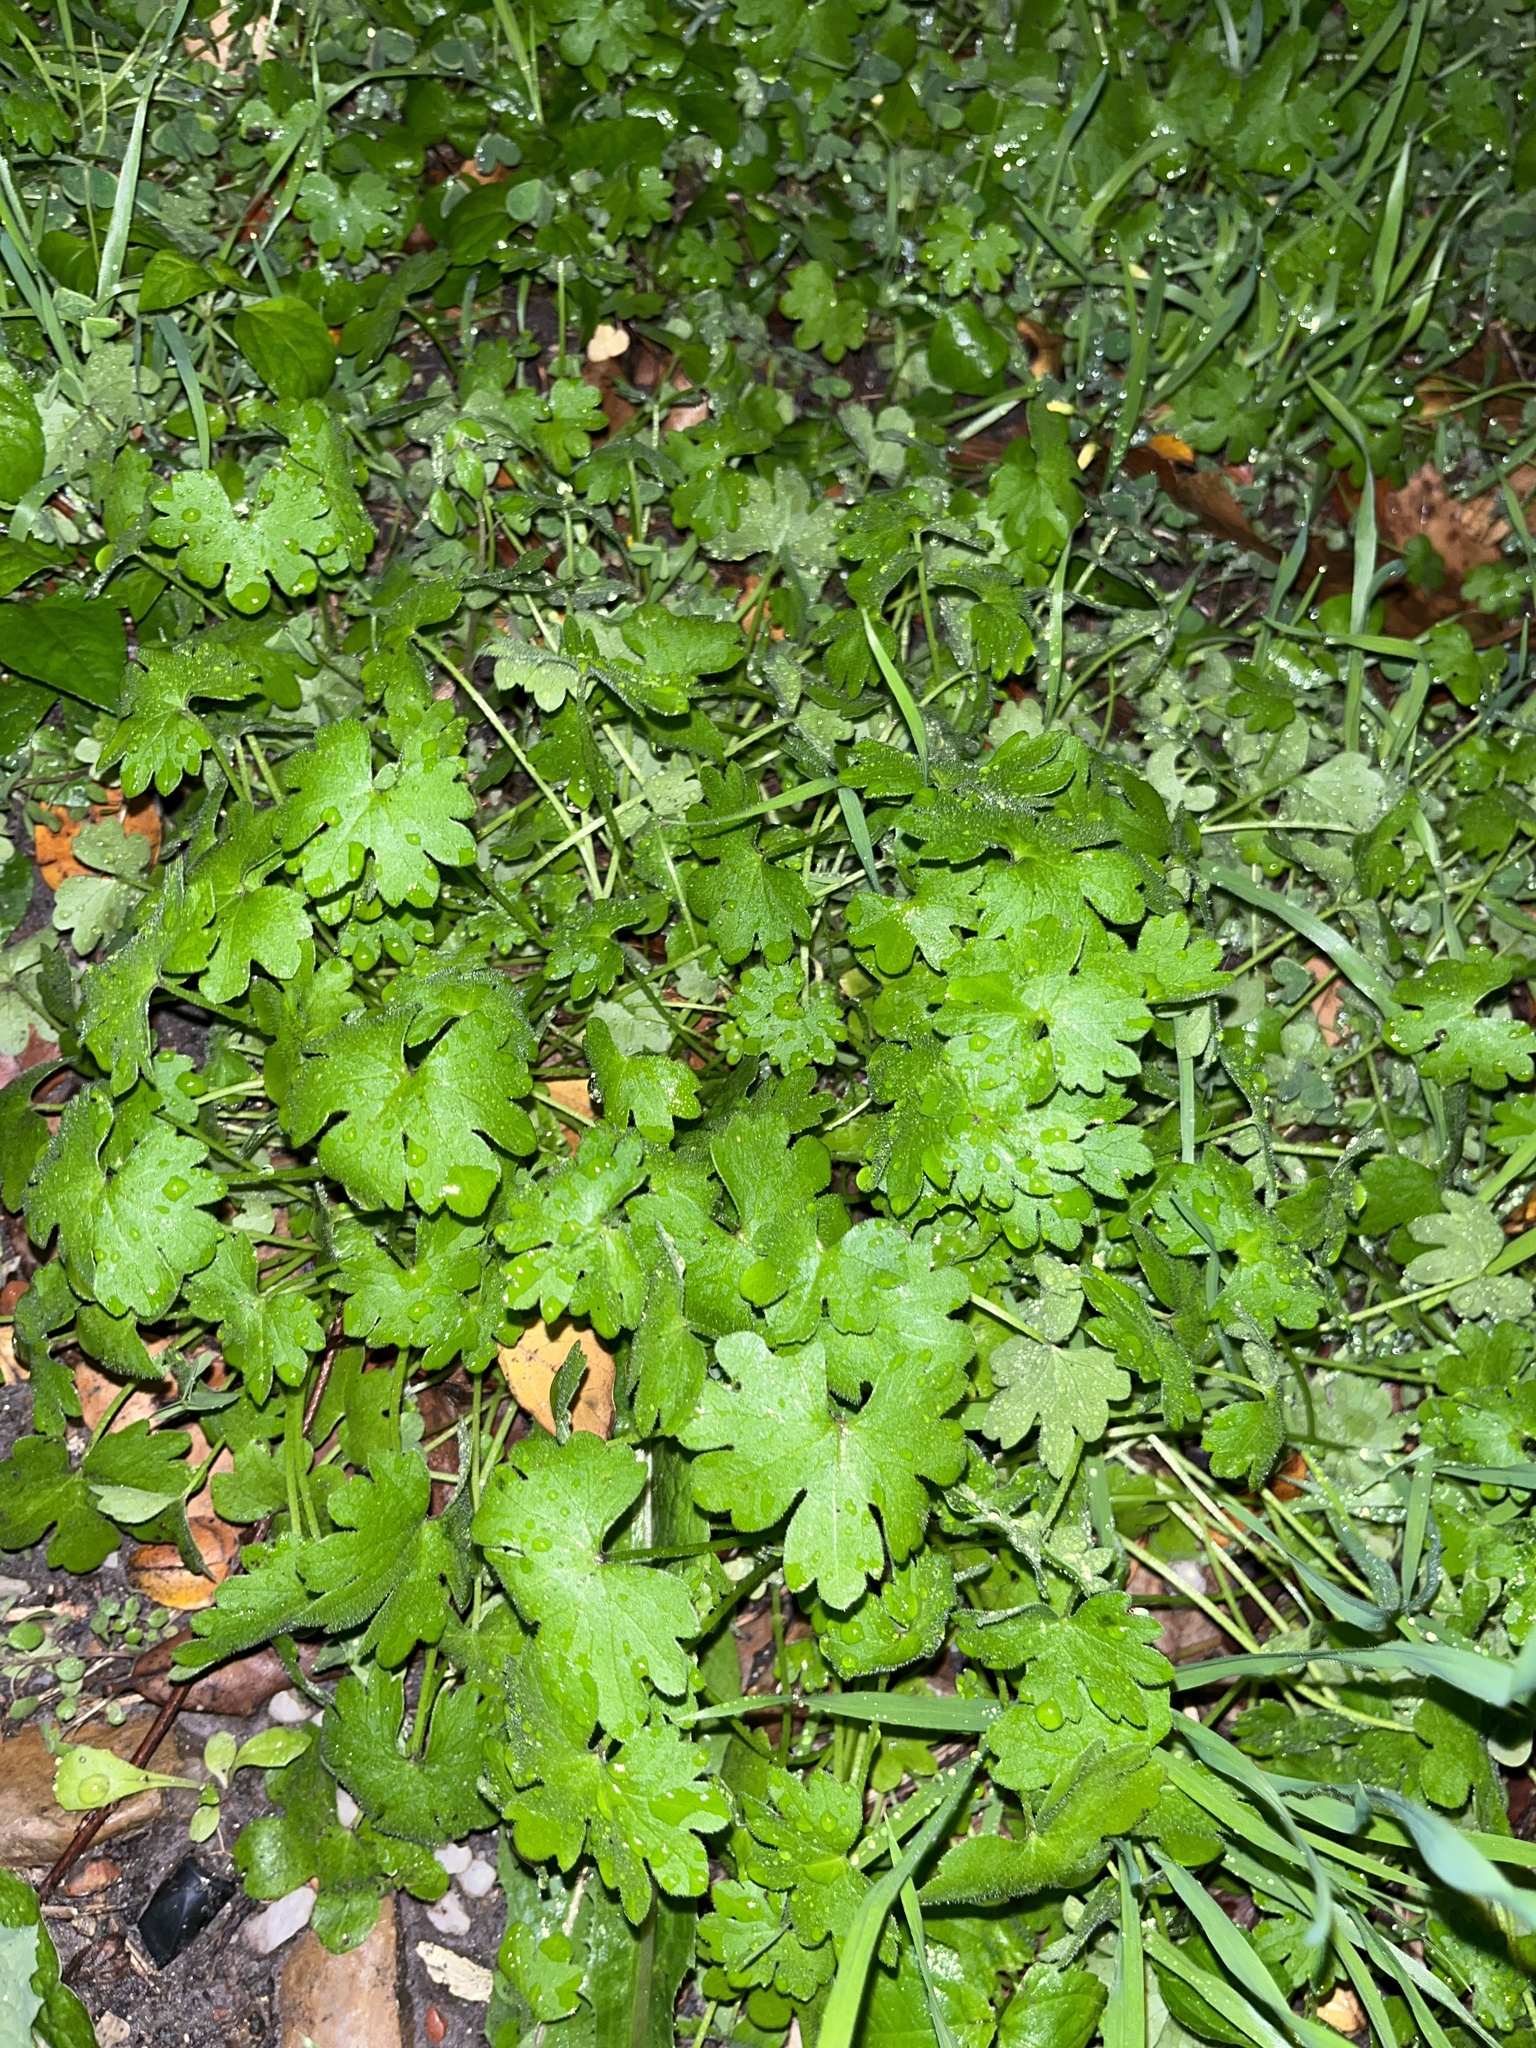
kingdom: Plantae
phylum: Tracheophyta
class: Magnoliopsida
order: Apiales
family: Apiaceae
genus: Bowlesia
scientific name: Bowlesia incana
